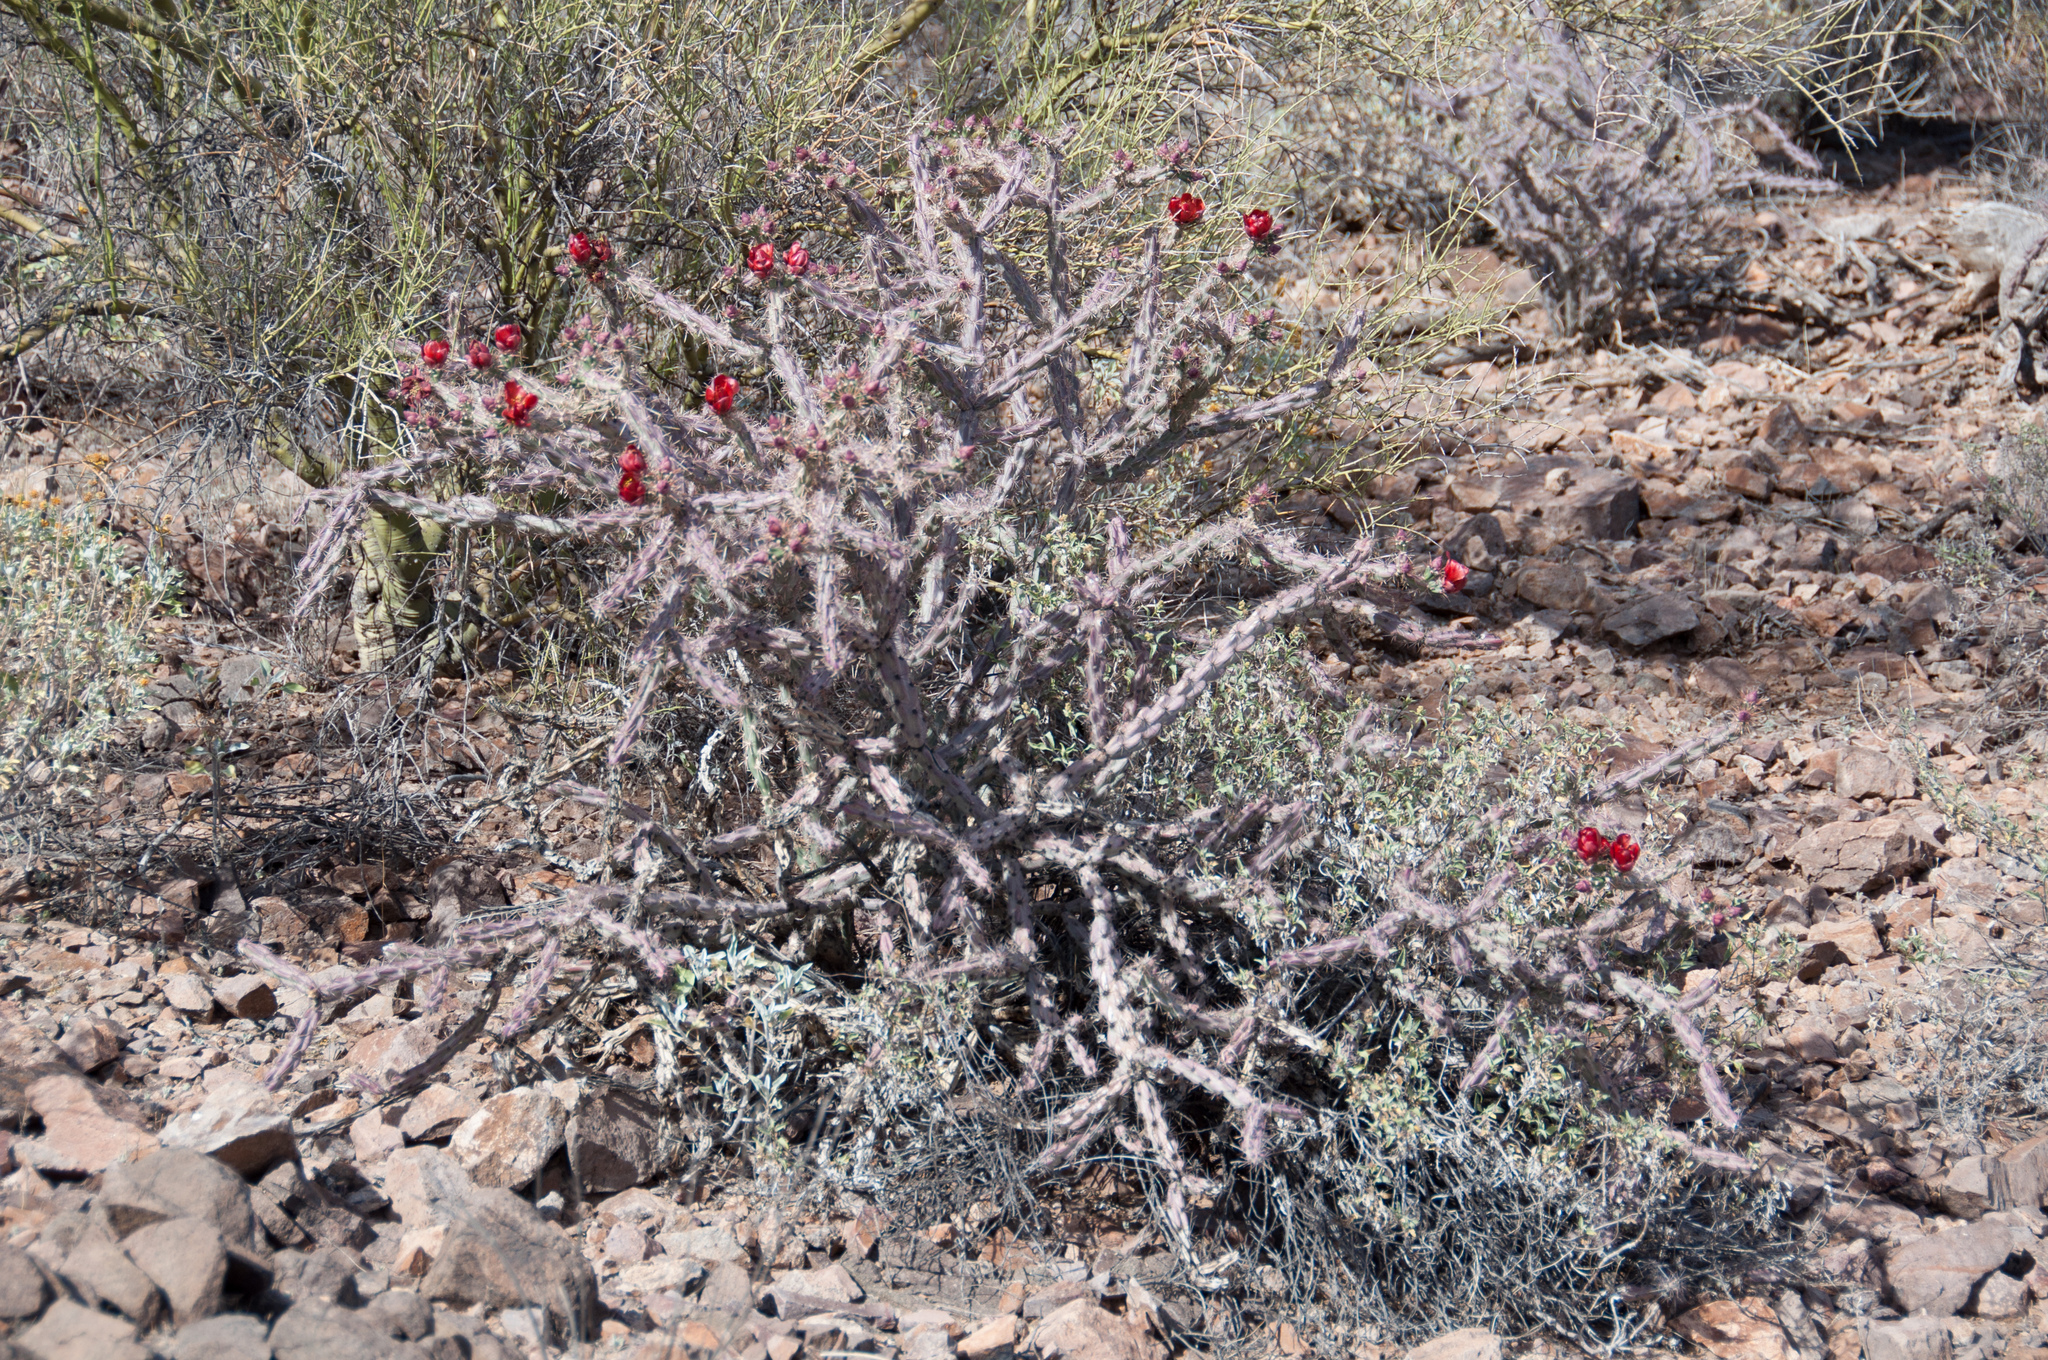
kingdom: Plantae
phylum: Tracheophyta
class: Magnoliopsida
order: Caryophyllales
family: Cactaceae
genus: Cylindropuntia
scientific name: Cylindropuntia thurberi
